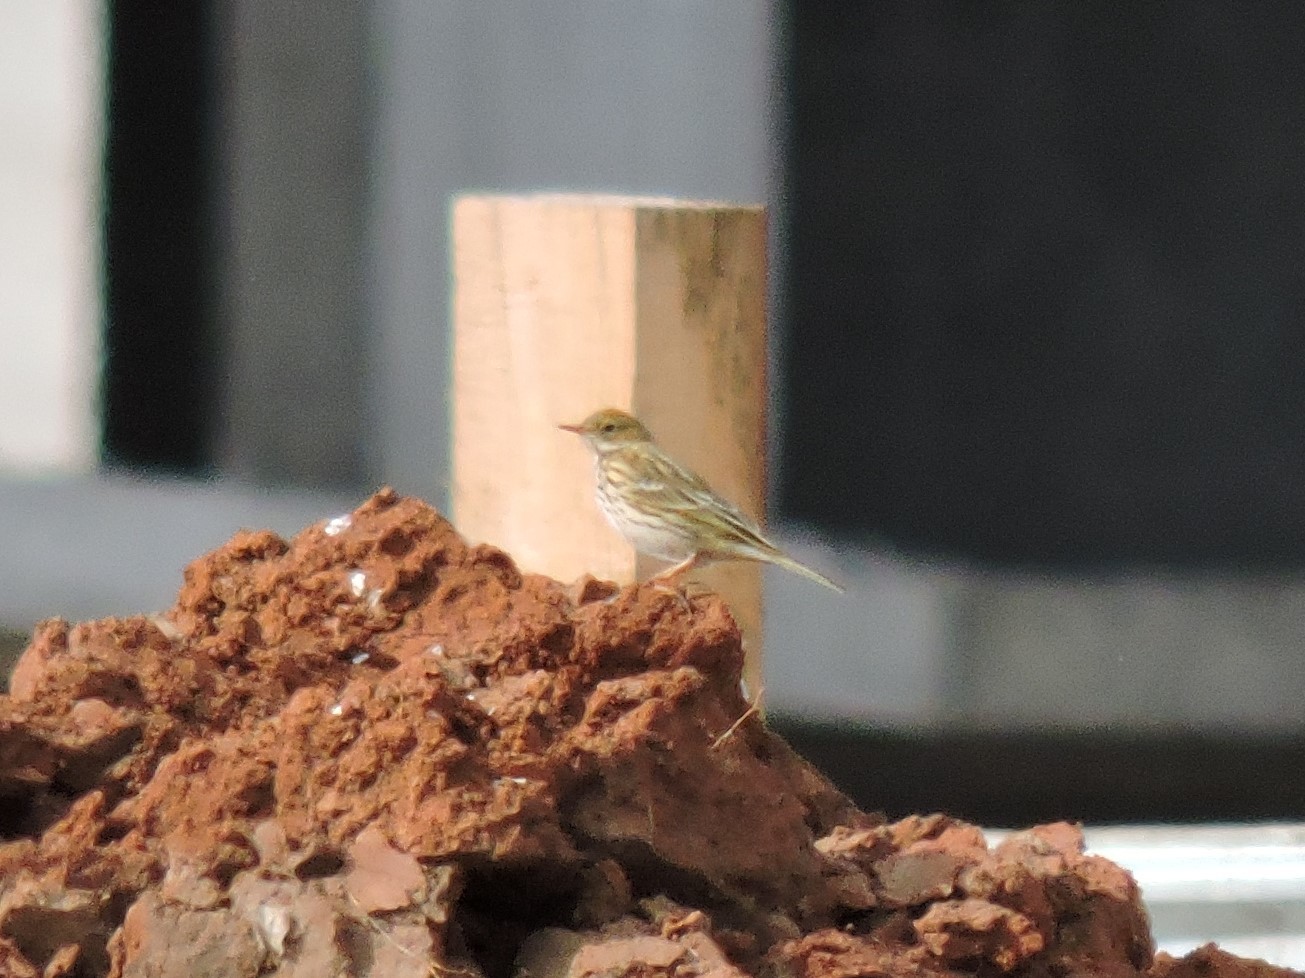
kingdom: Animalia
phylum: Chordata
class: Aves
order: Passeriformes
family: Motacillidae
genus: Anthus
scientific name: Anthus pratensis
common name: Meadow pipit
